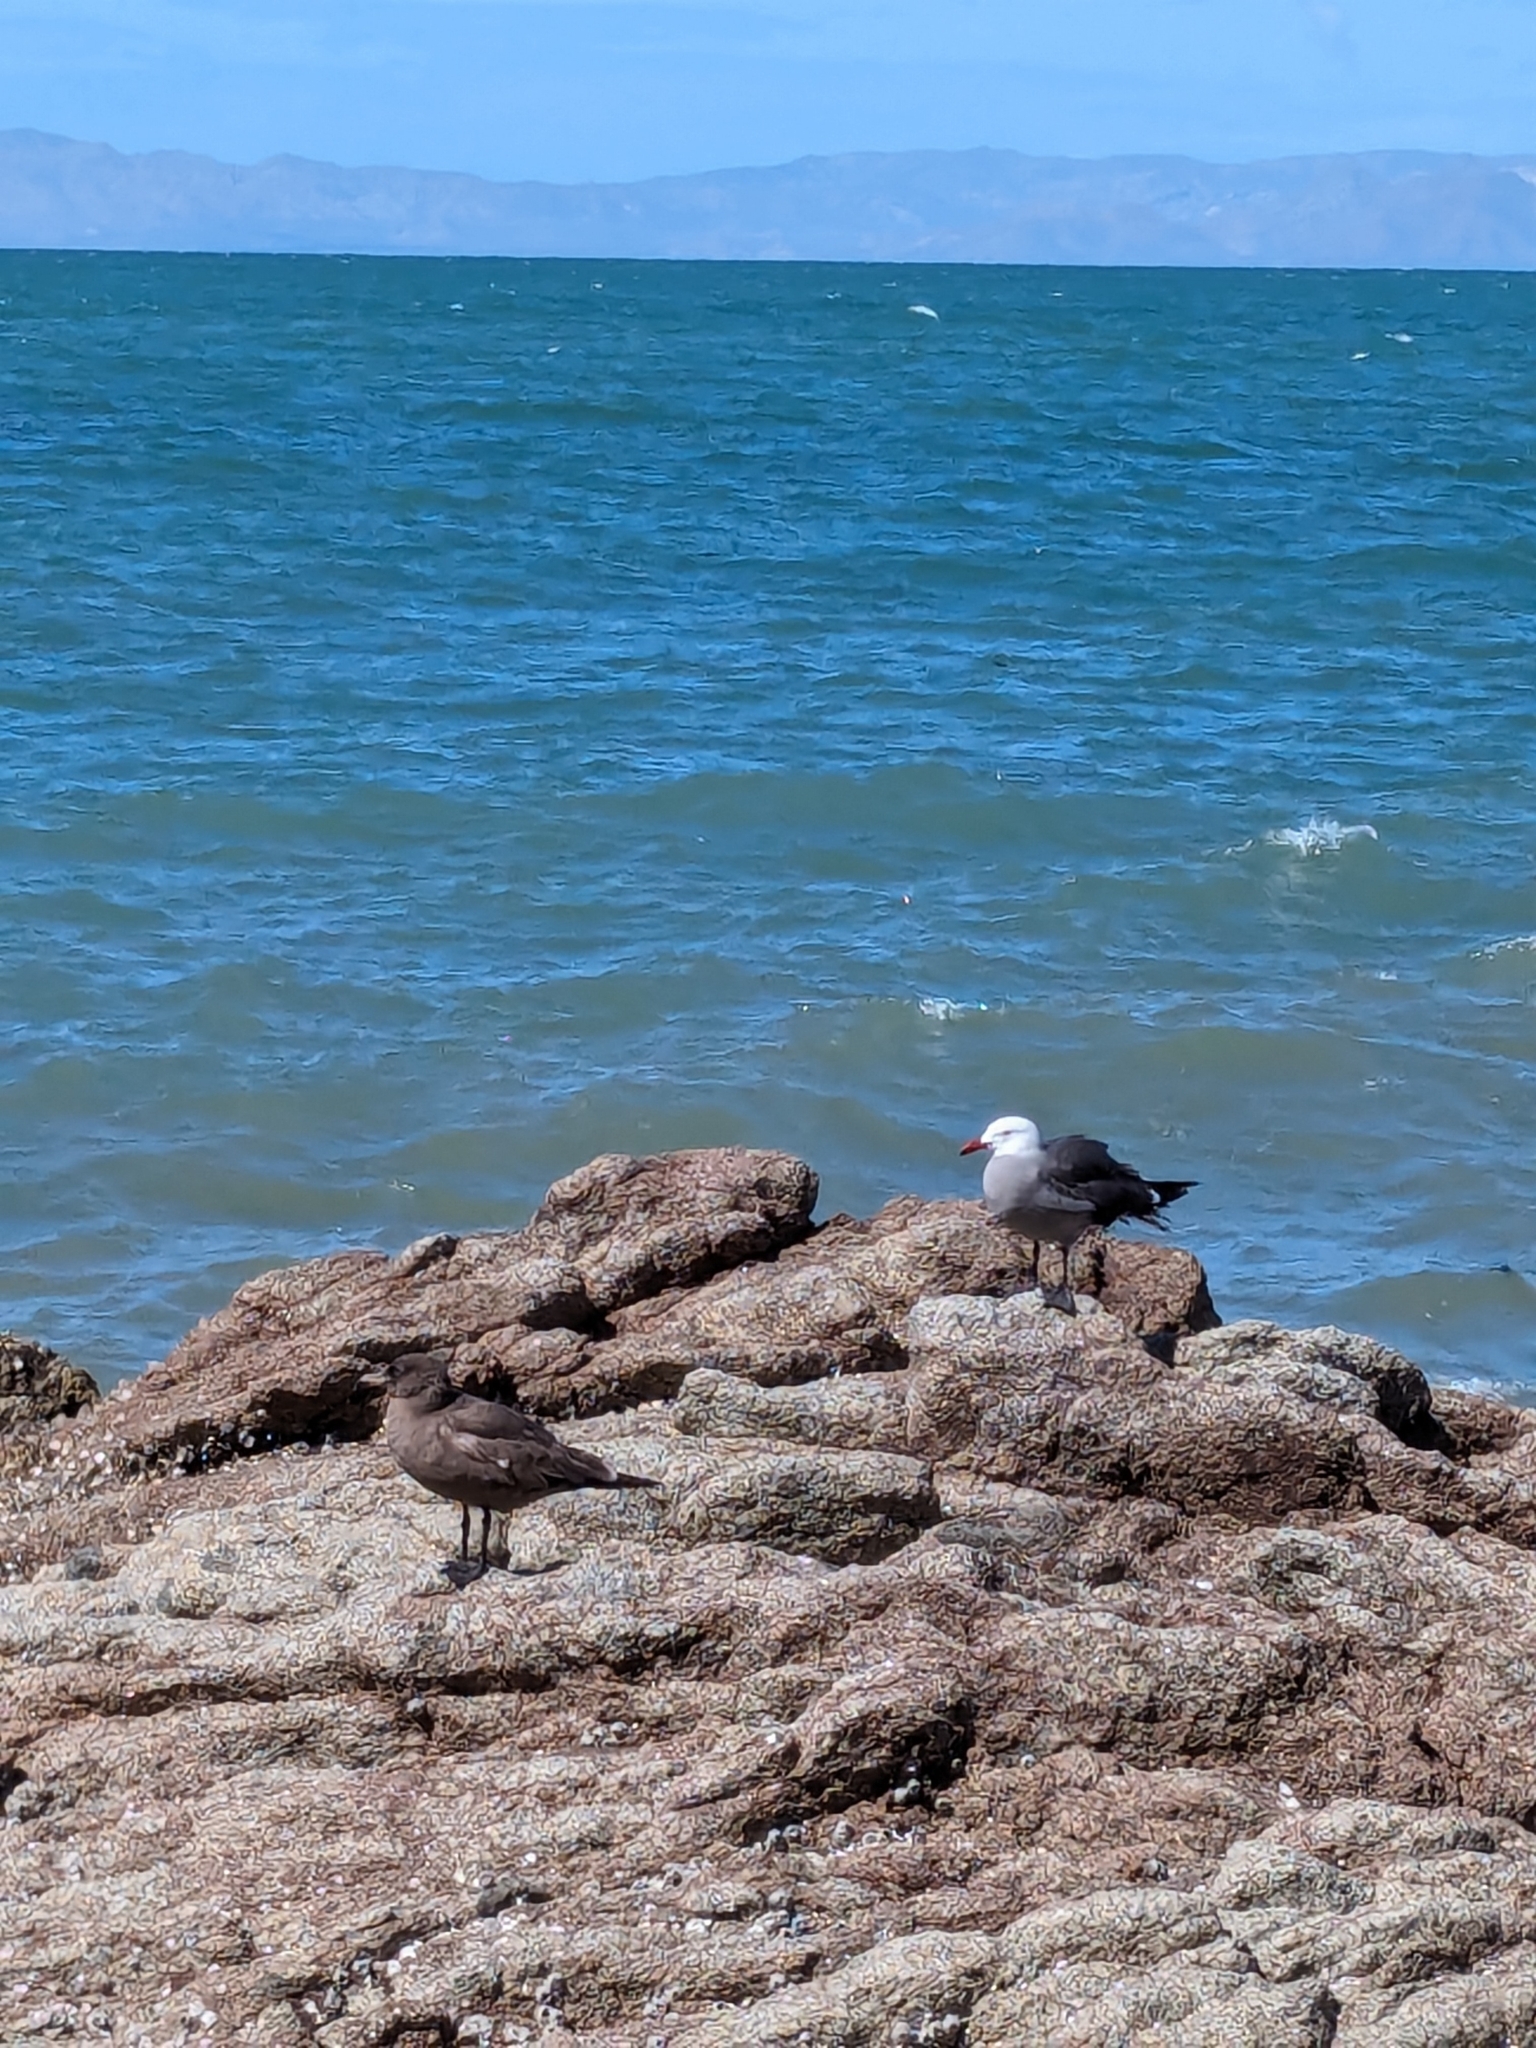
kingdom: Animalia
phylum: Chordata
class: Aves
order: Charadriiformes
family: Laridae
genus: Larus
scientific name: Larus heermanni
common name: Heermann's gull
